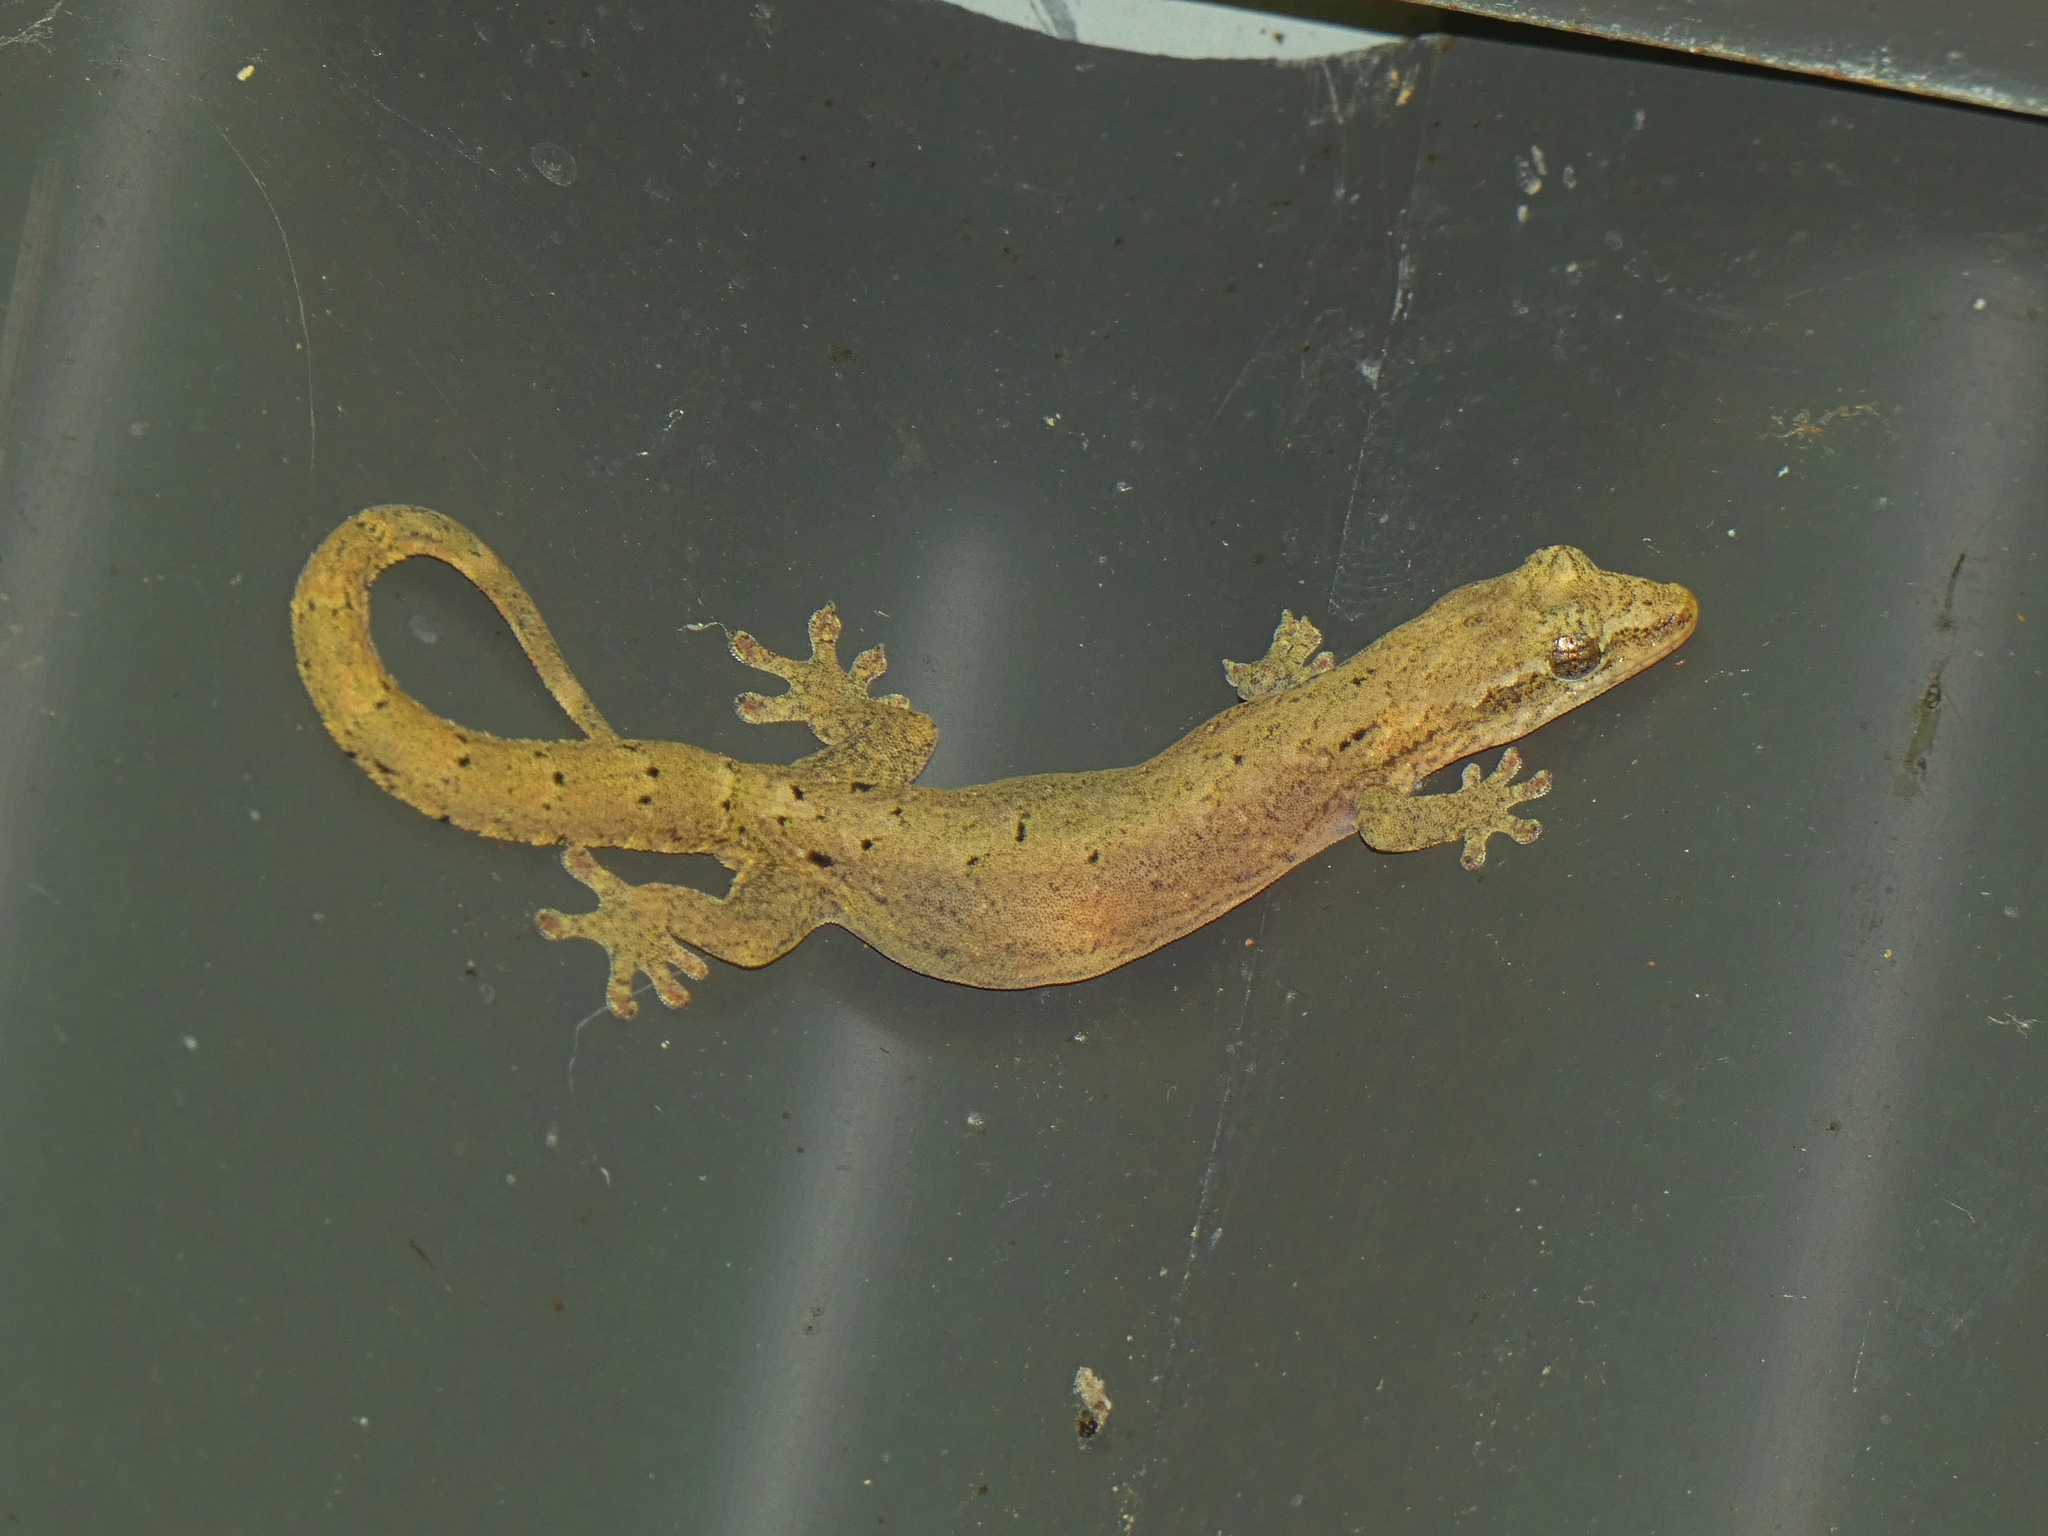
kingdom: Animalia
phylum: Chordata
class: Squamata
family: Gekkonidae
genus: Lepidodactylus
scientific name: Lepidodactylus lugubris
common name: Mourning gecko
